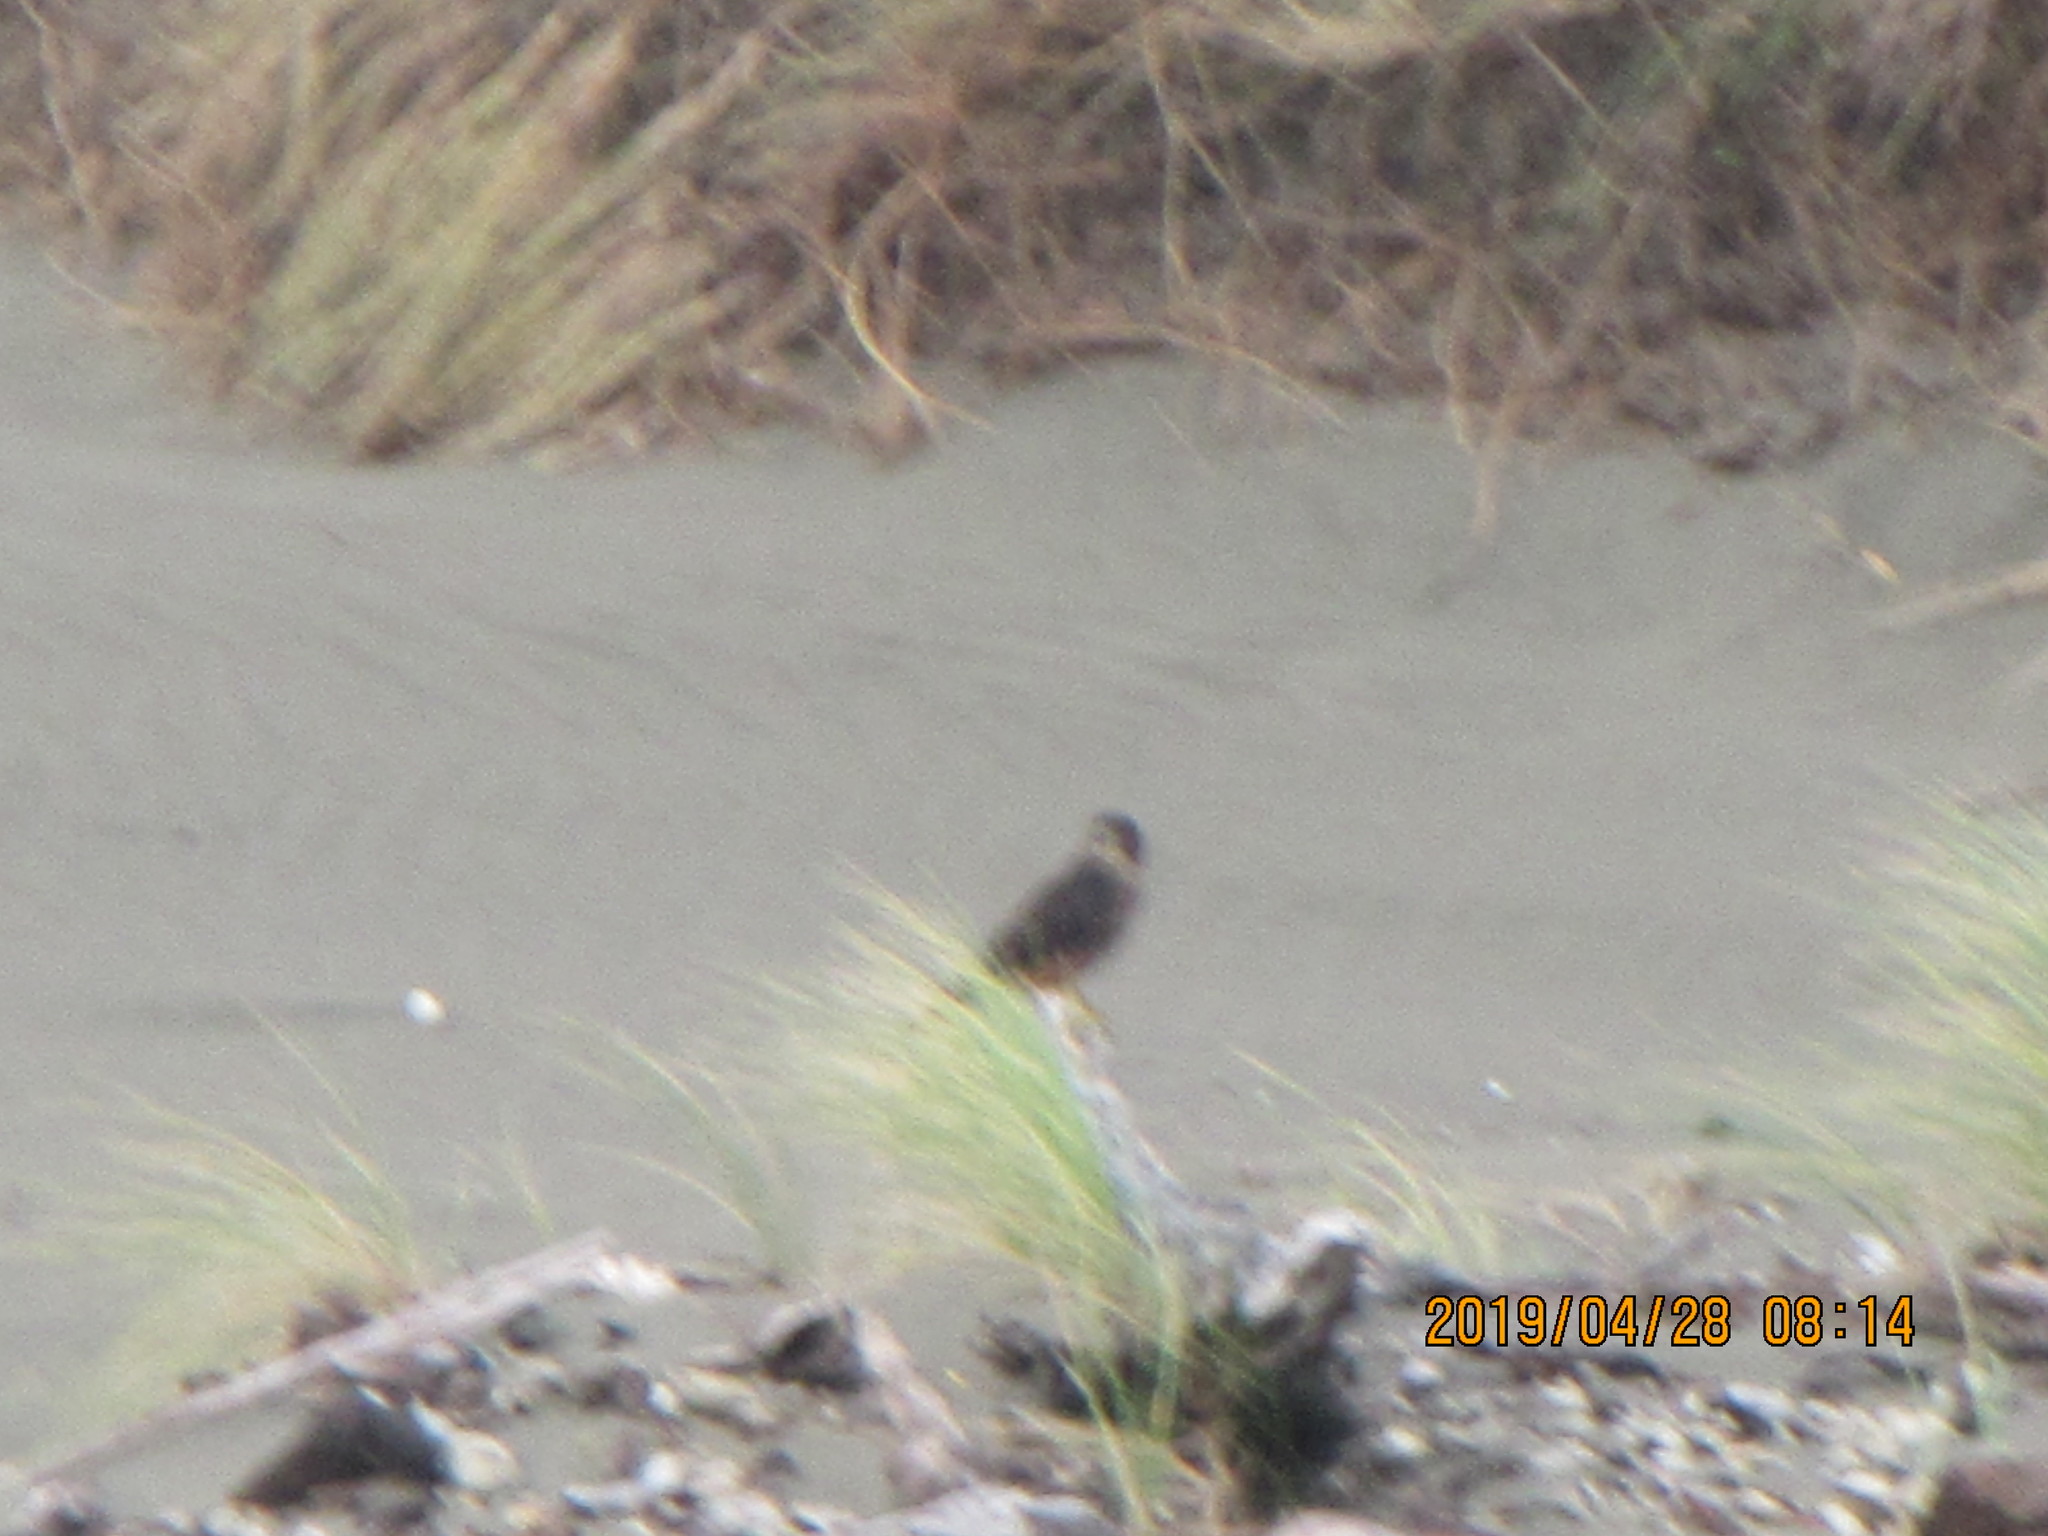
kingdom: Animalia
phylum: Chordata
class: Aves
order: Falconiformes
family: Falconidae
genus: Falco
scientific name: Falco novaeseelandiae
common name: New zealand falcon
